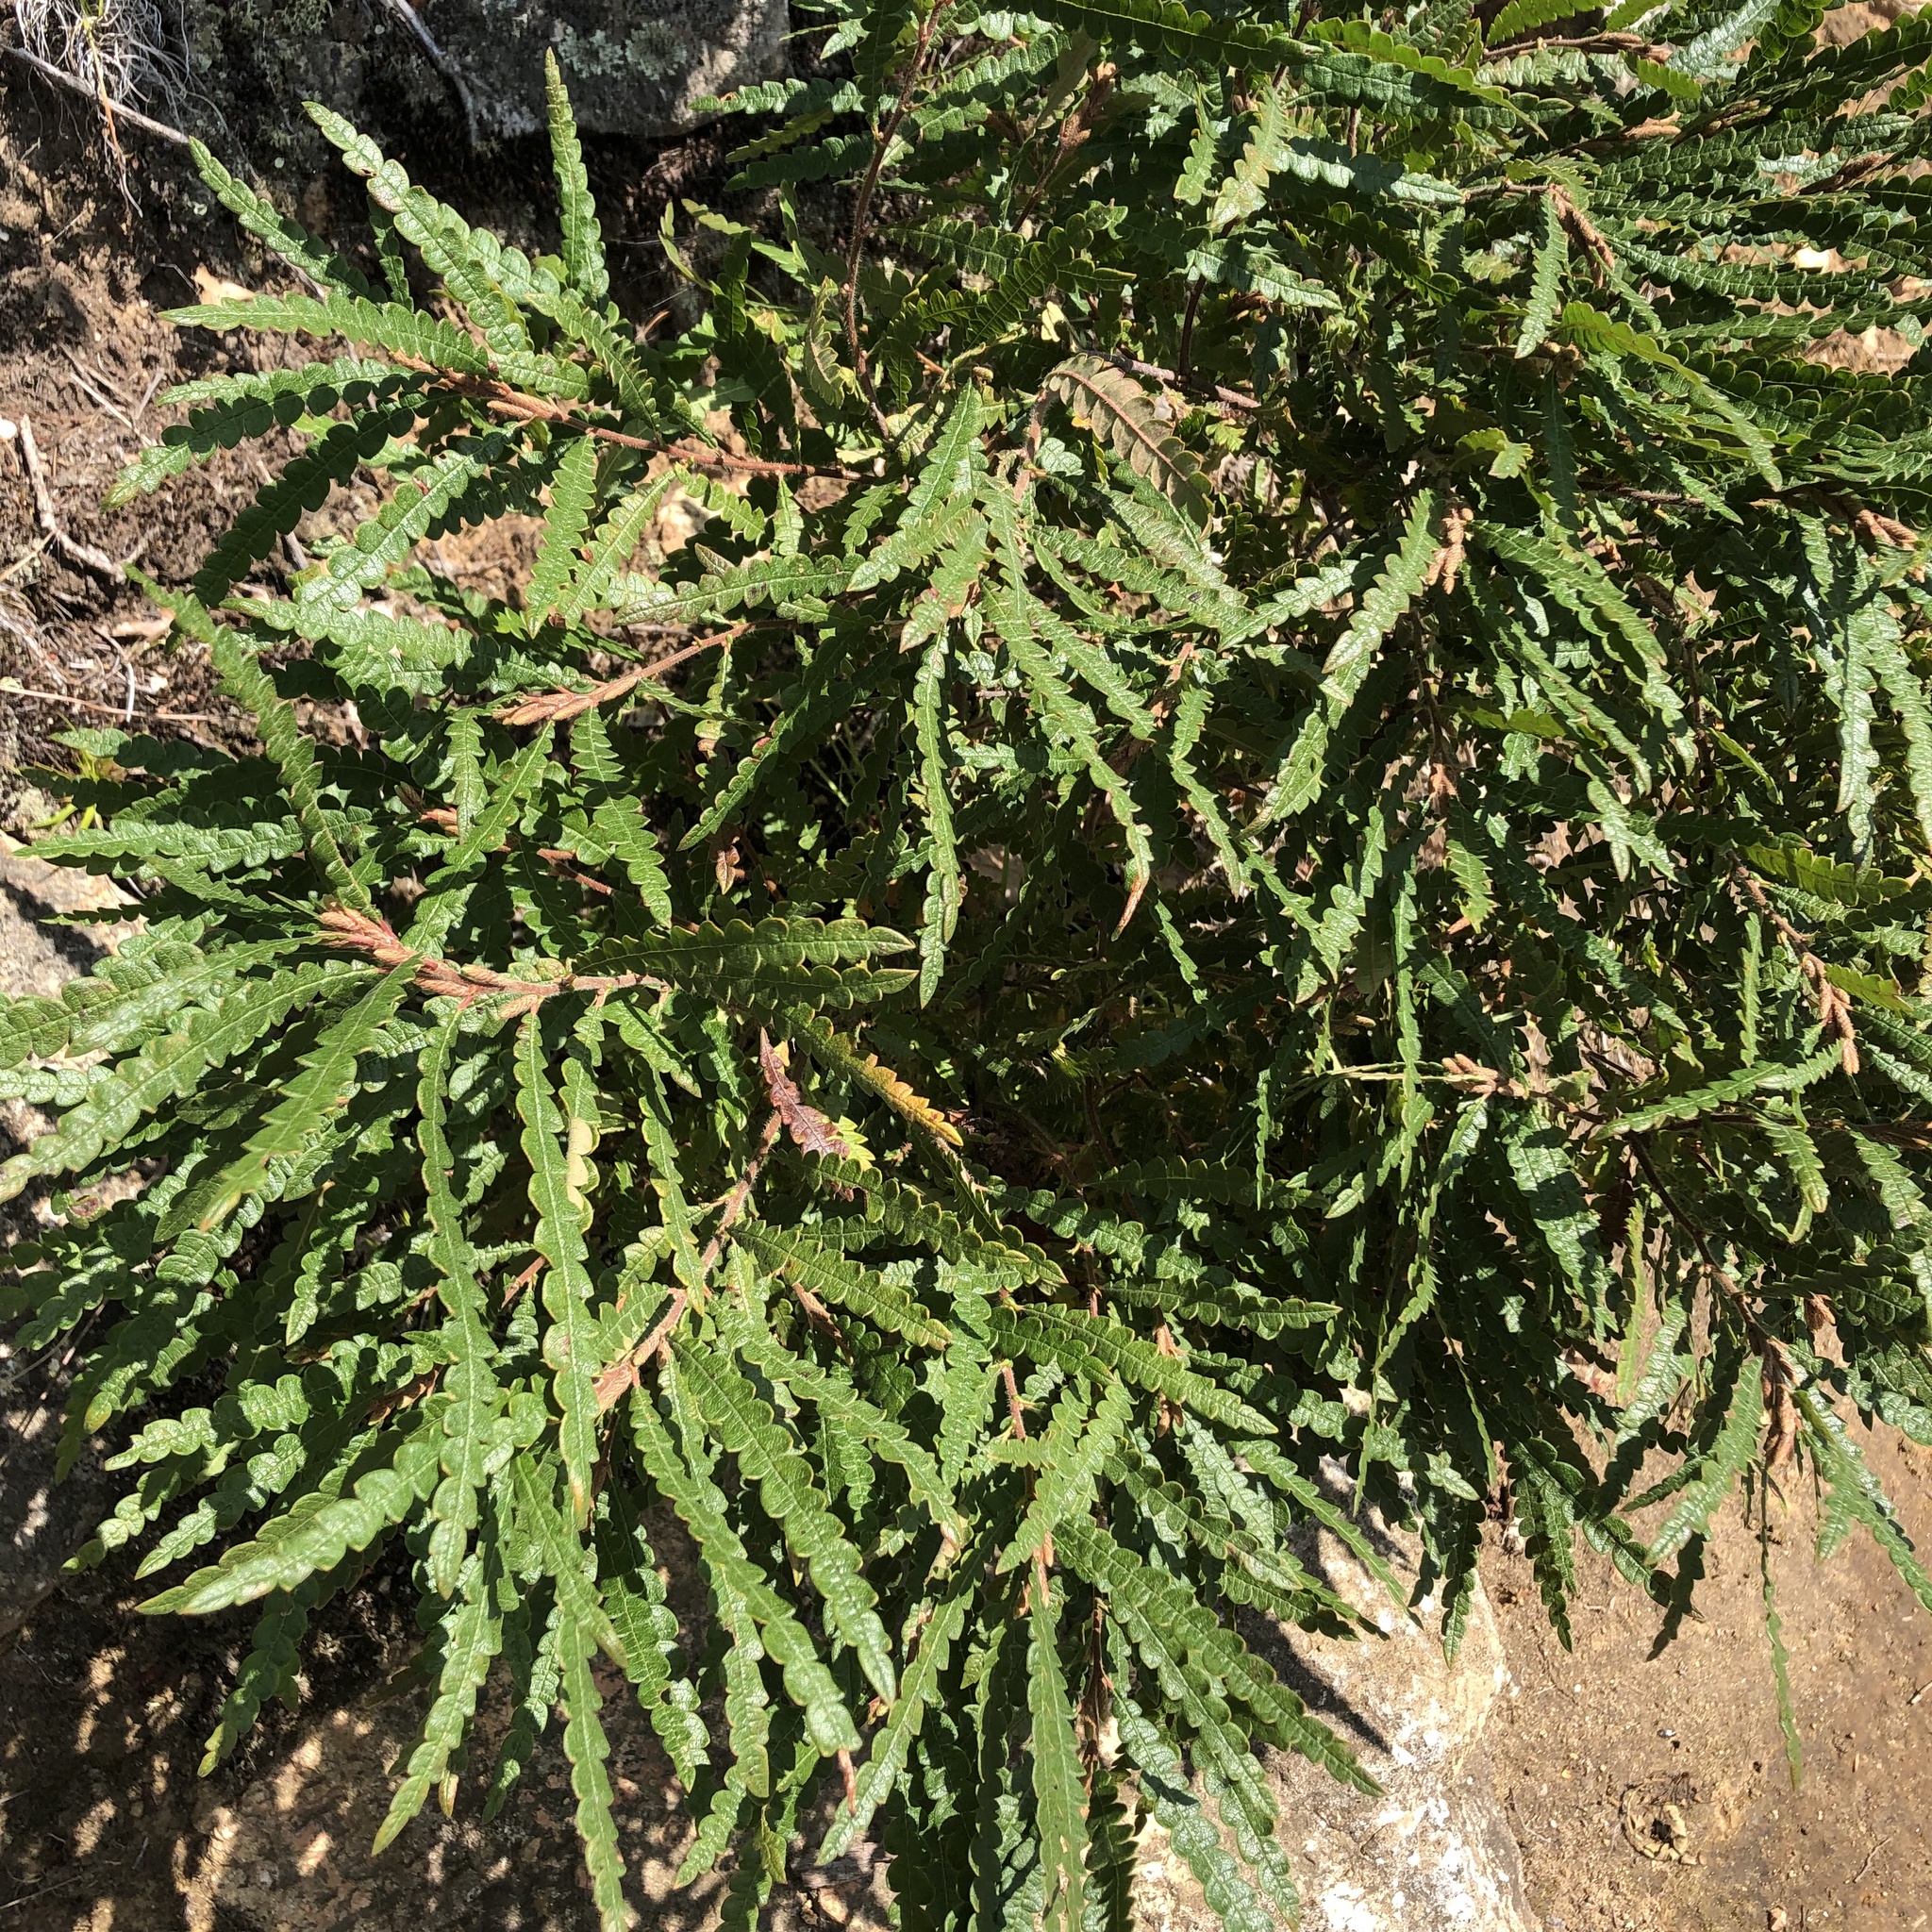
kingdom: Plantae
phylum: Tracheophyta
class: Magnoliopsida
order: Fagales
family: Myricaceae
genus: Comptonia
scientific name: Comptonia peregrina
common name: Sweet-fern
